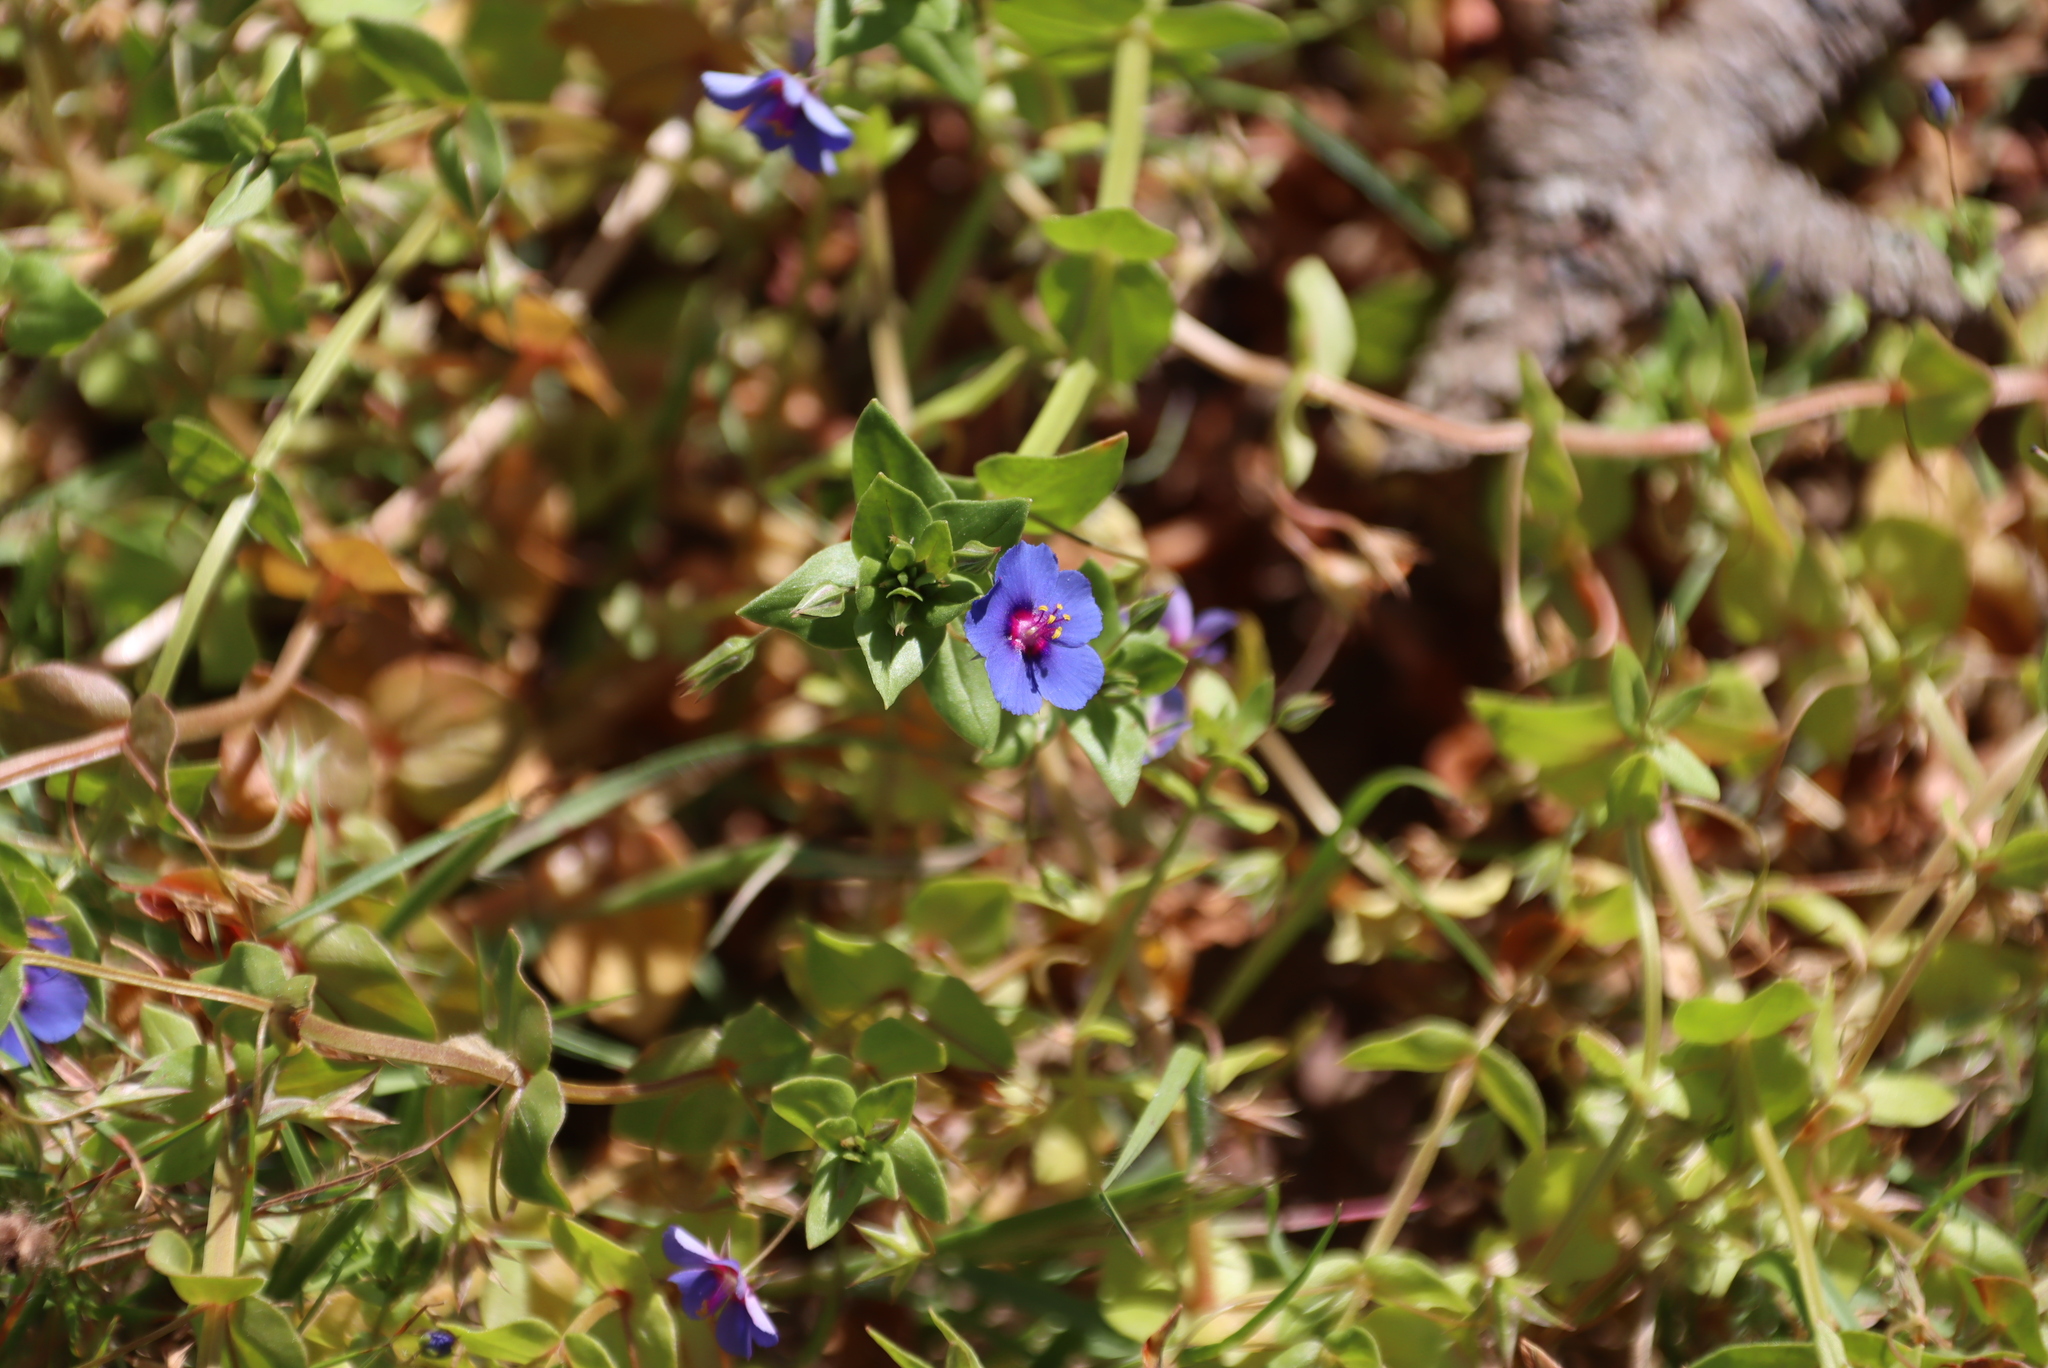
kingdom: Plantae
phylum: Tracheophyta
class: Magnoliopsida
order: Ericales
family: Primulaceae
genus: Lysimachia
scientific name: Lysimachia loeflingii
